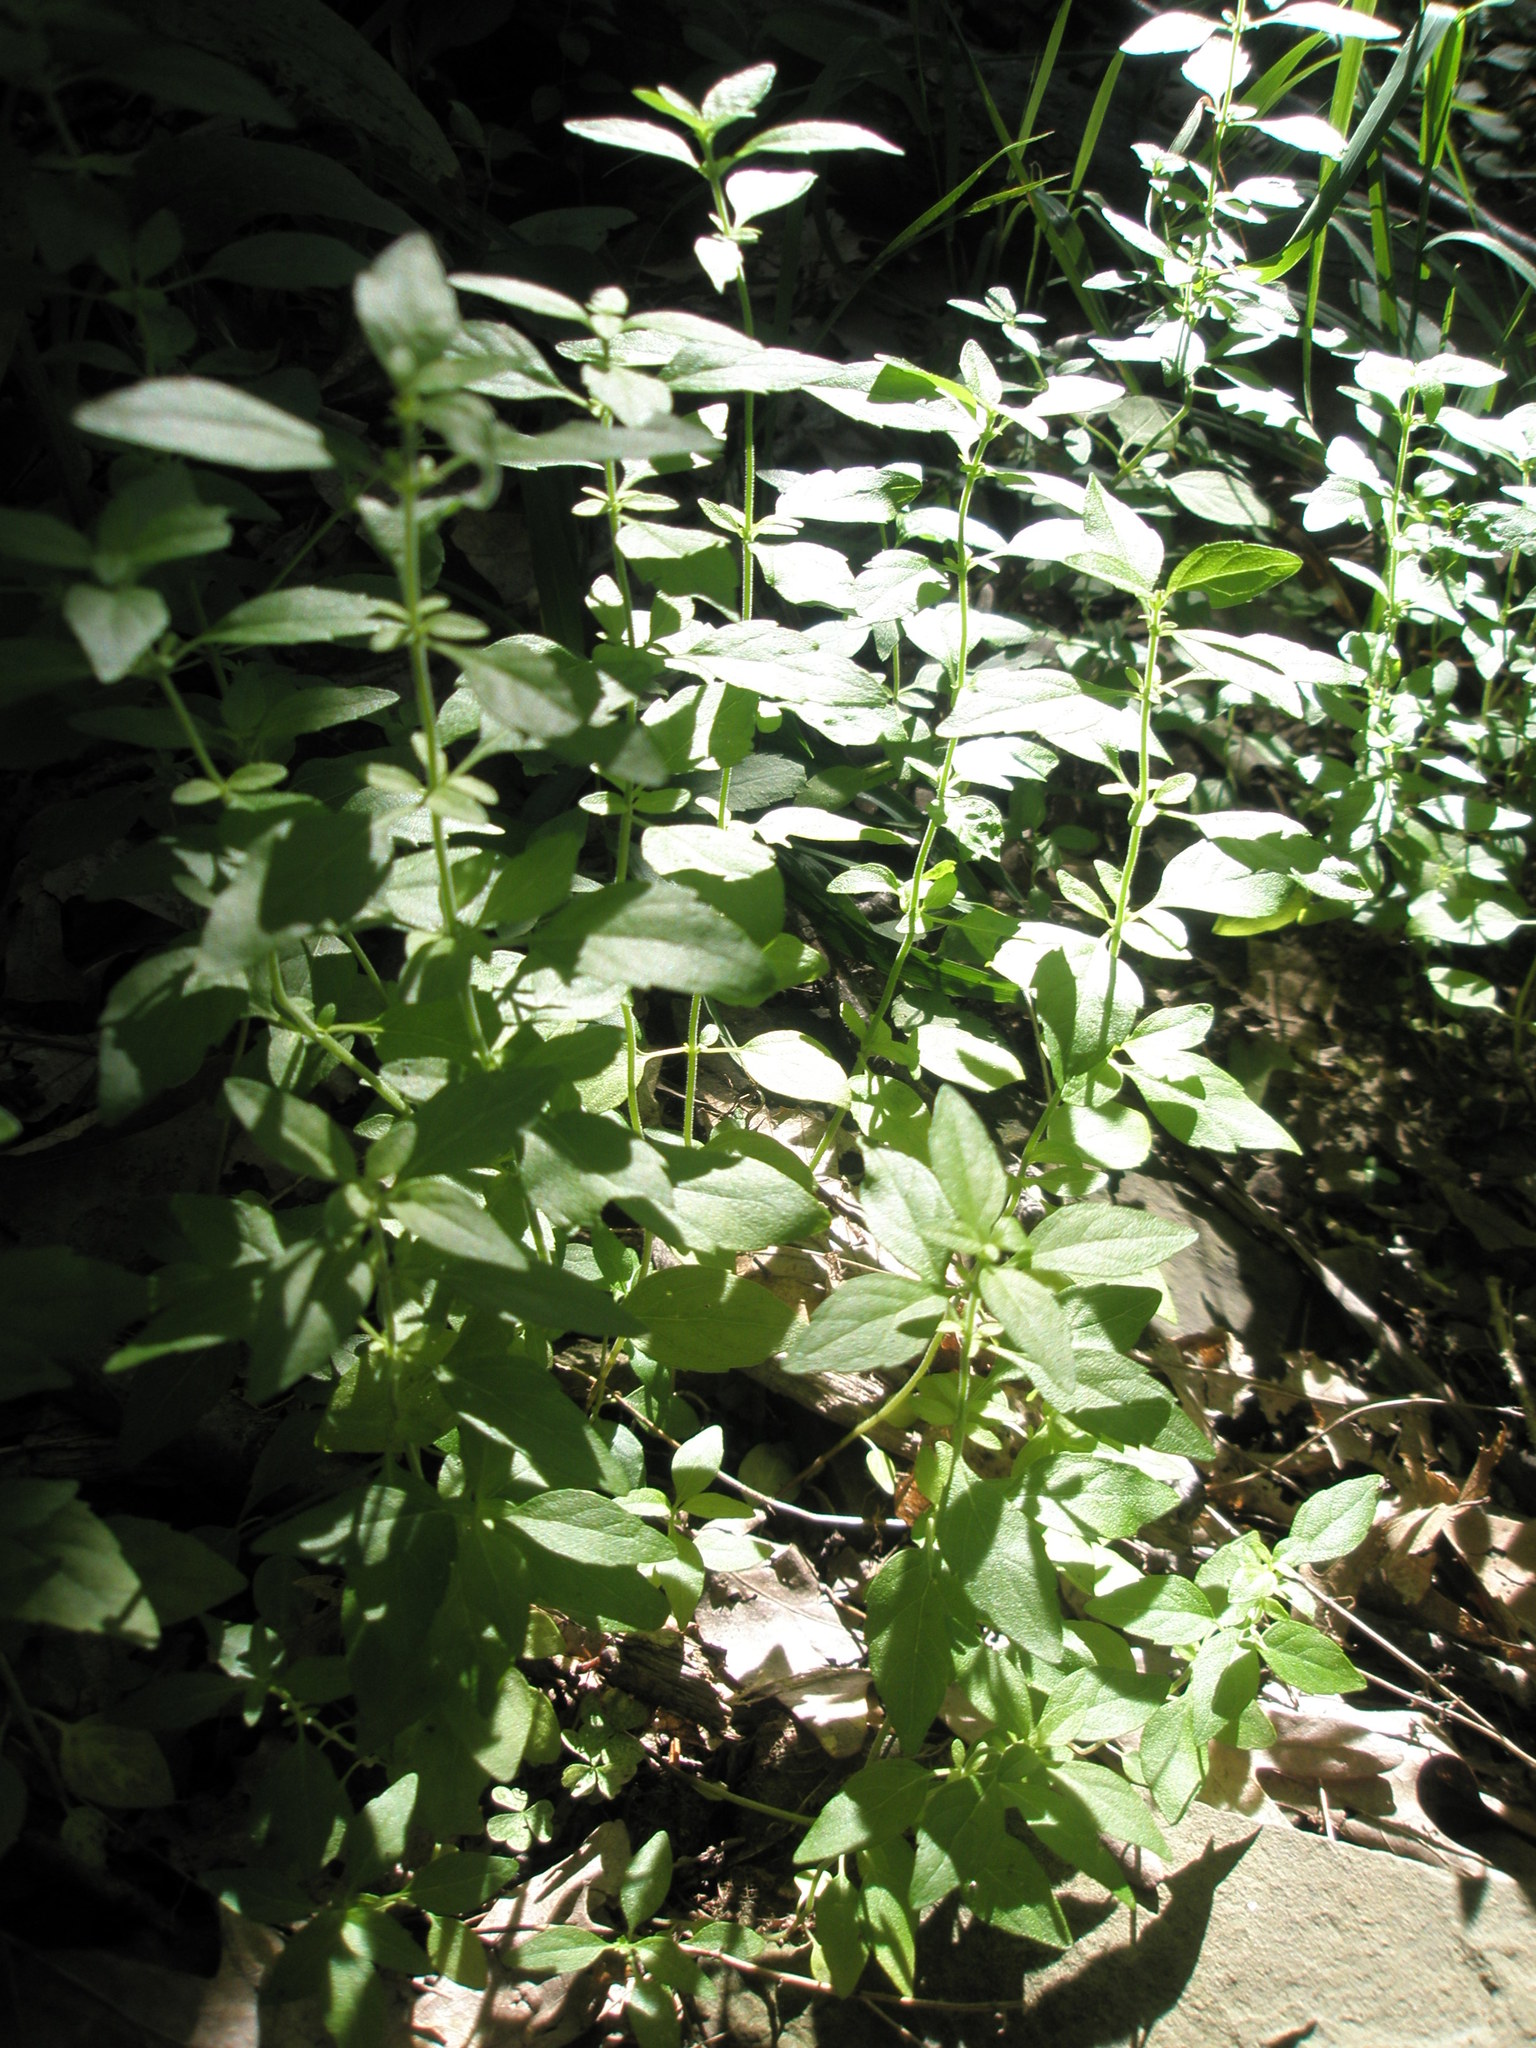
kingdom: Plantae
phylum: Tracheophyta
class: Magnoliopsida
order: Lamiales
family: Lamiaceae
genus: Hedeoma
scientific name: Hedeoma pulegioides
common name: American false pennyroyal
